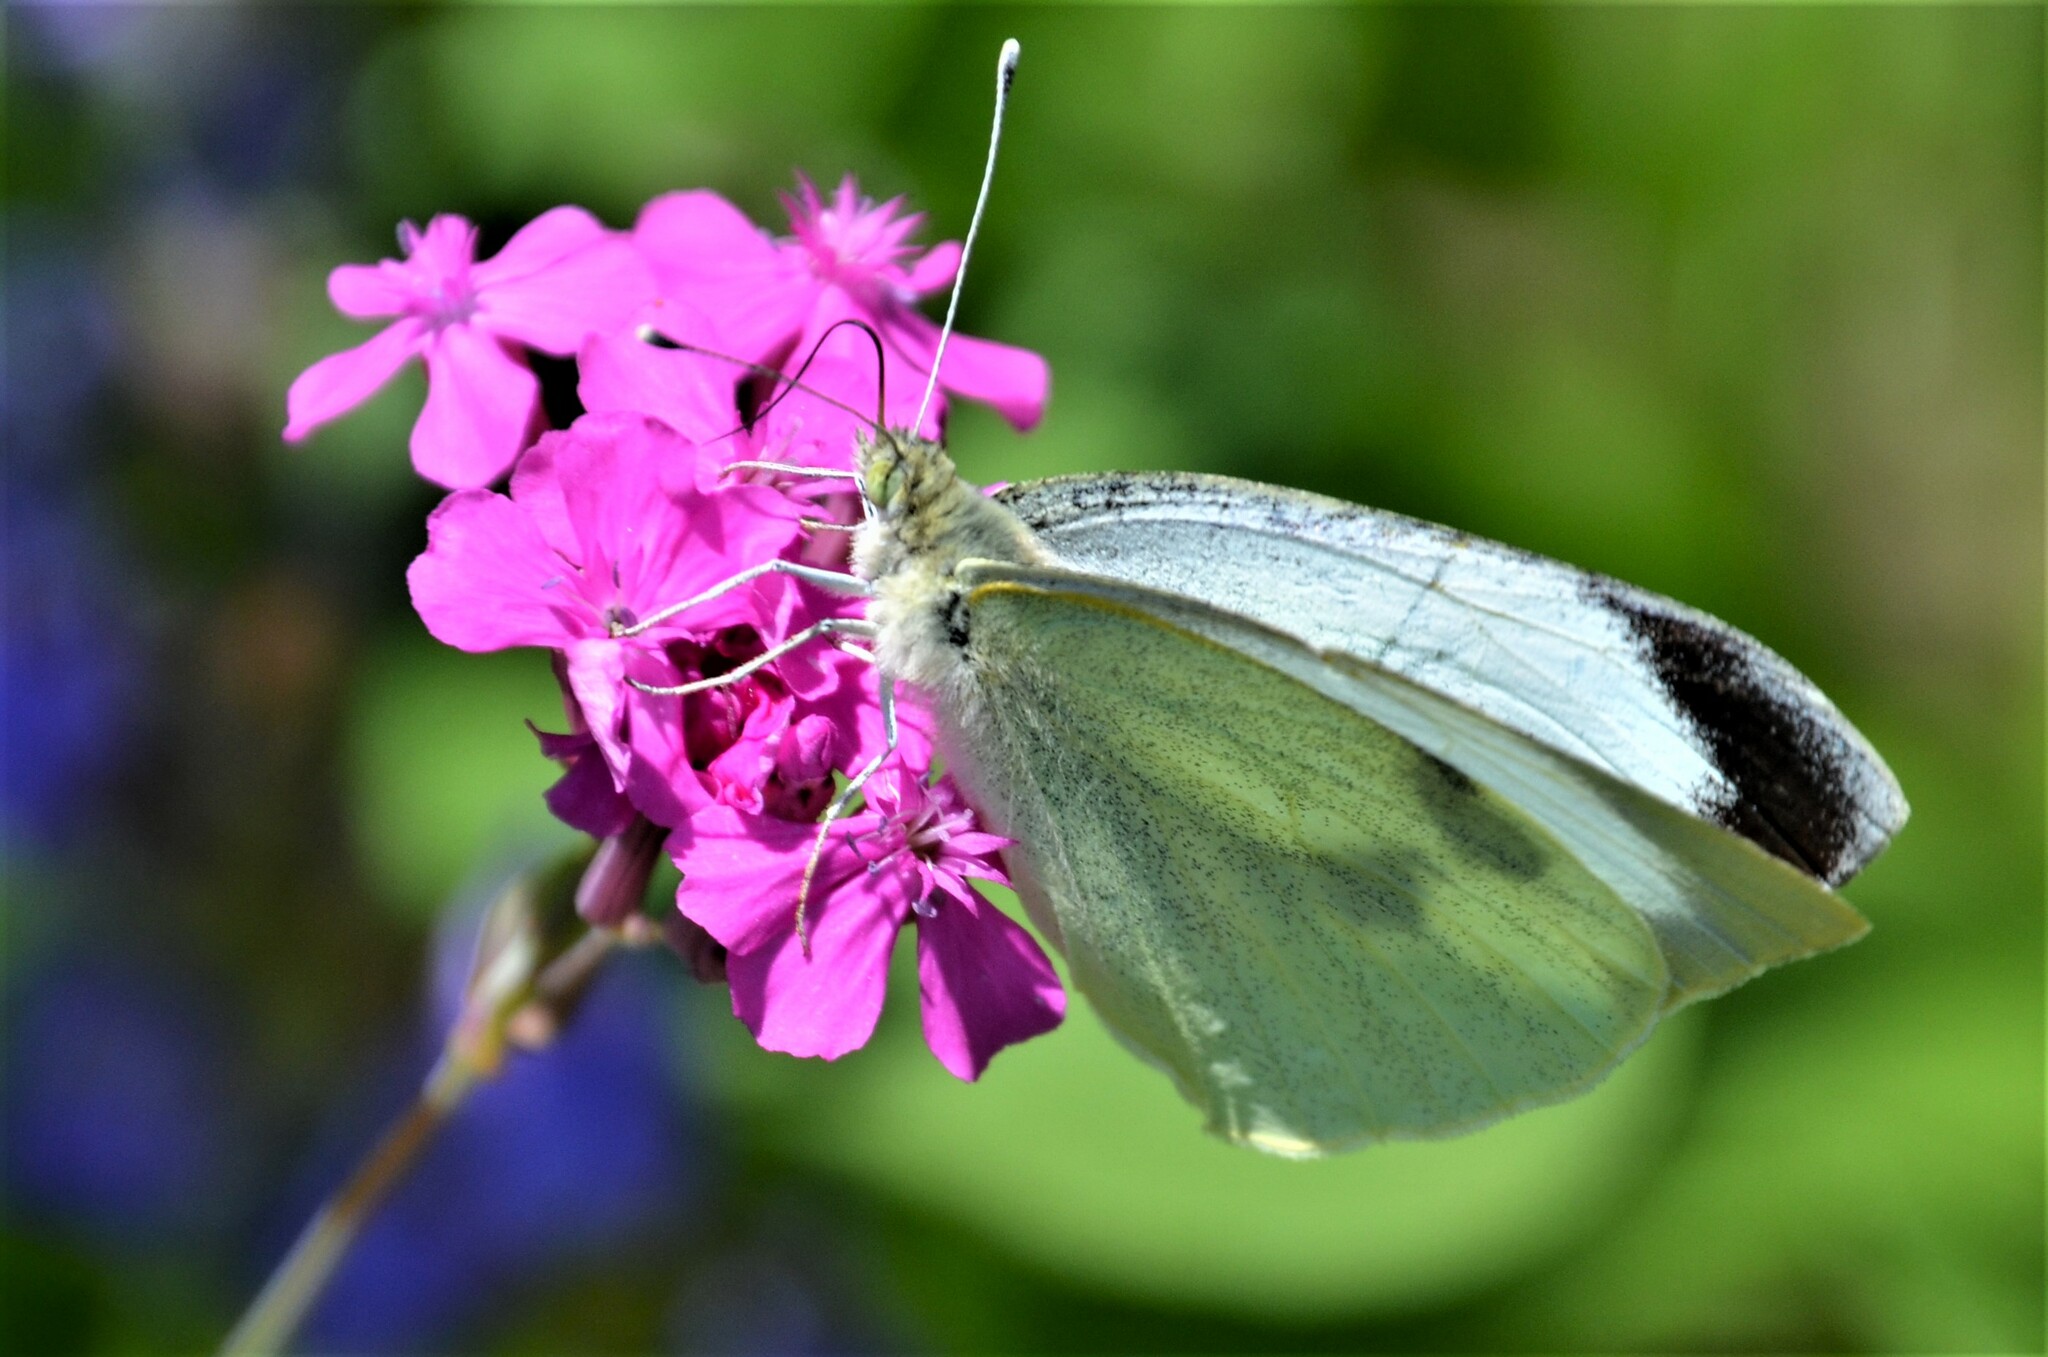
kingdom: Animalia
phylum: Arthropoda
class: Insecta
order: Lepidoptera
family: Pieridae
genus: Pieris
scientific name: Pieris brassicae
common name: Large white
